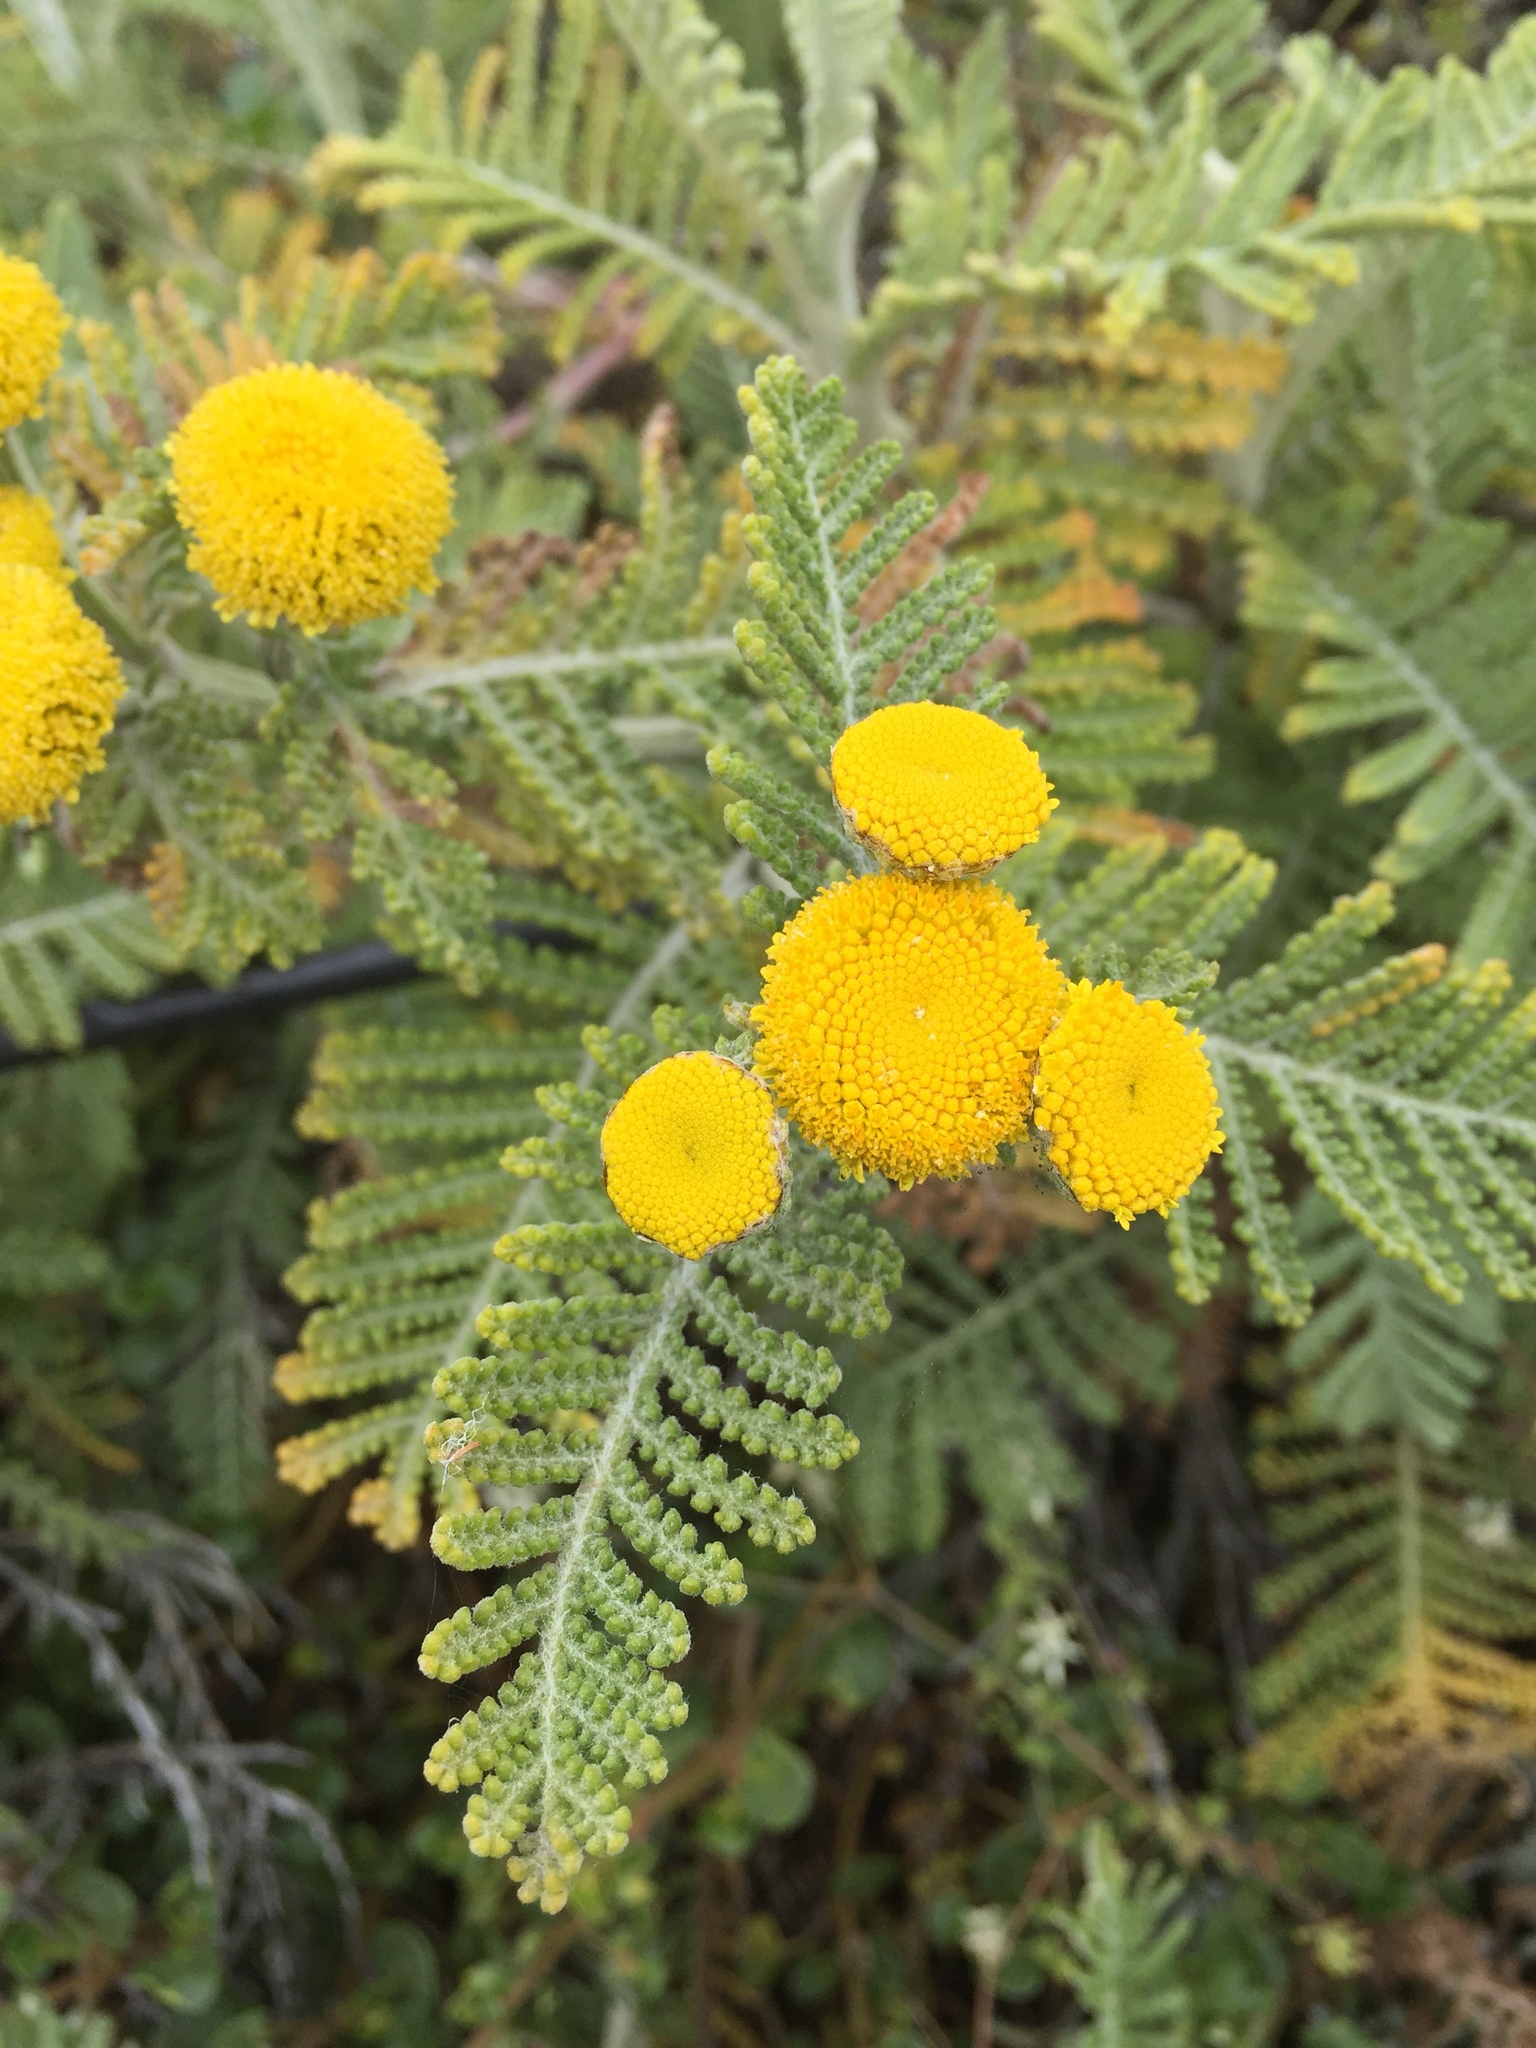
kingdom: Plantae
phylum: Tracheophyta
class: Magnoliopsida
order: Asterales
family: Asteraceae
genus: Tanacetum
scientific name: Tanacetum bipinnatum
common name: Dwarf tansy
